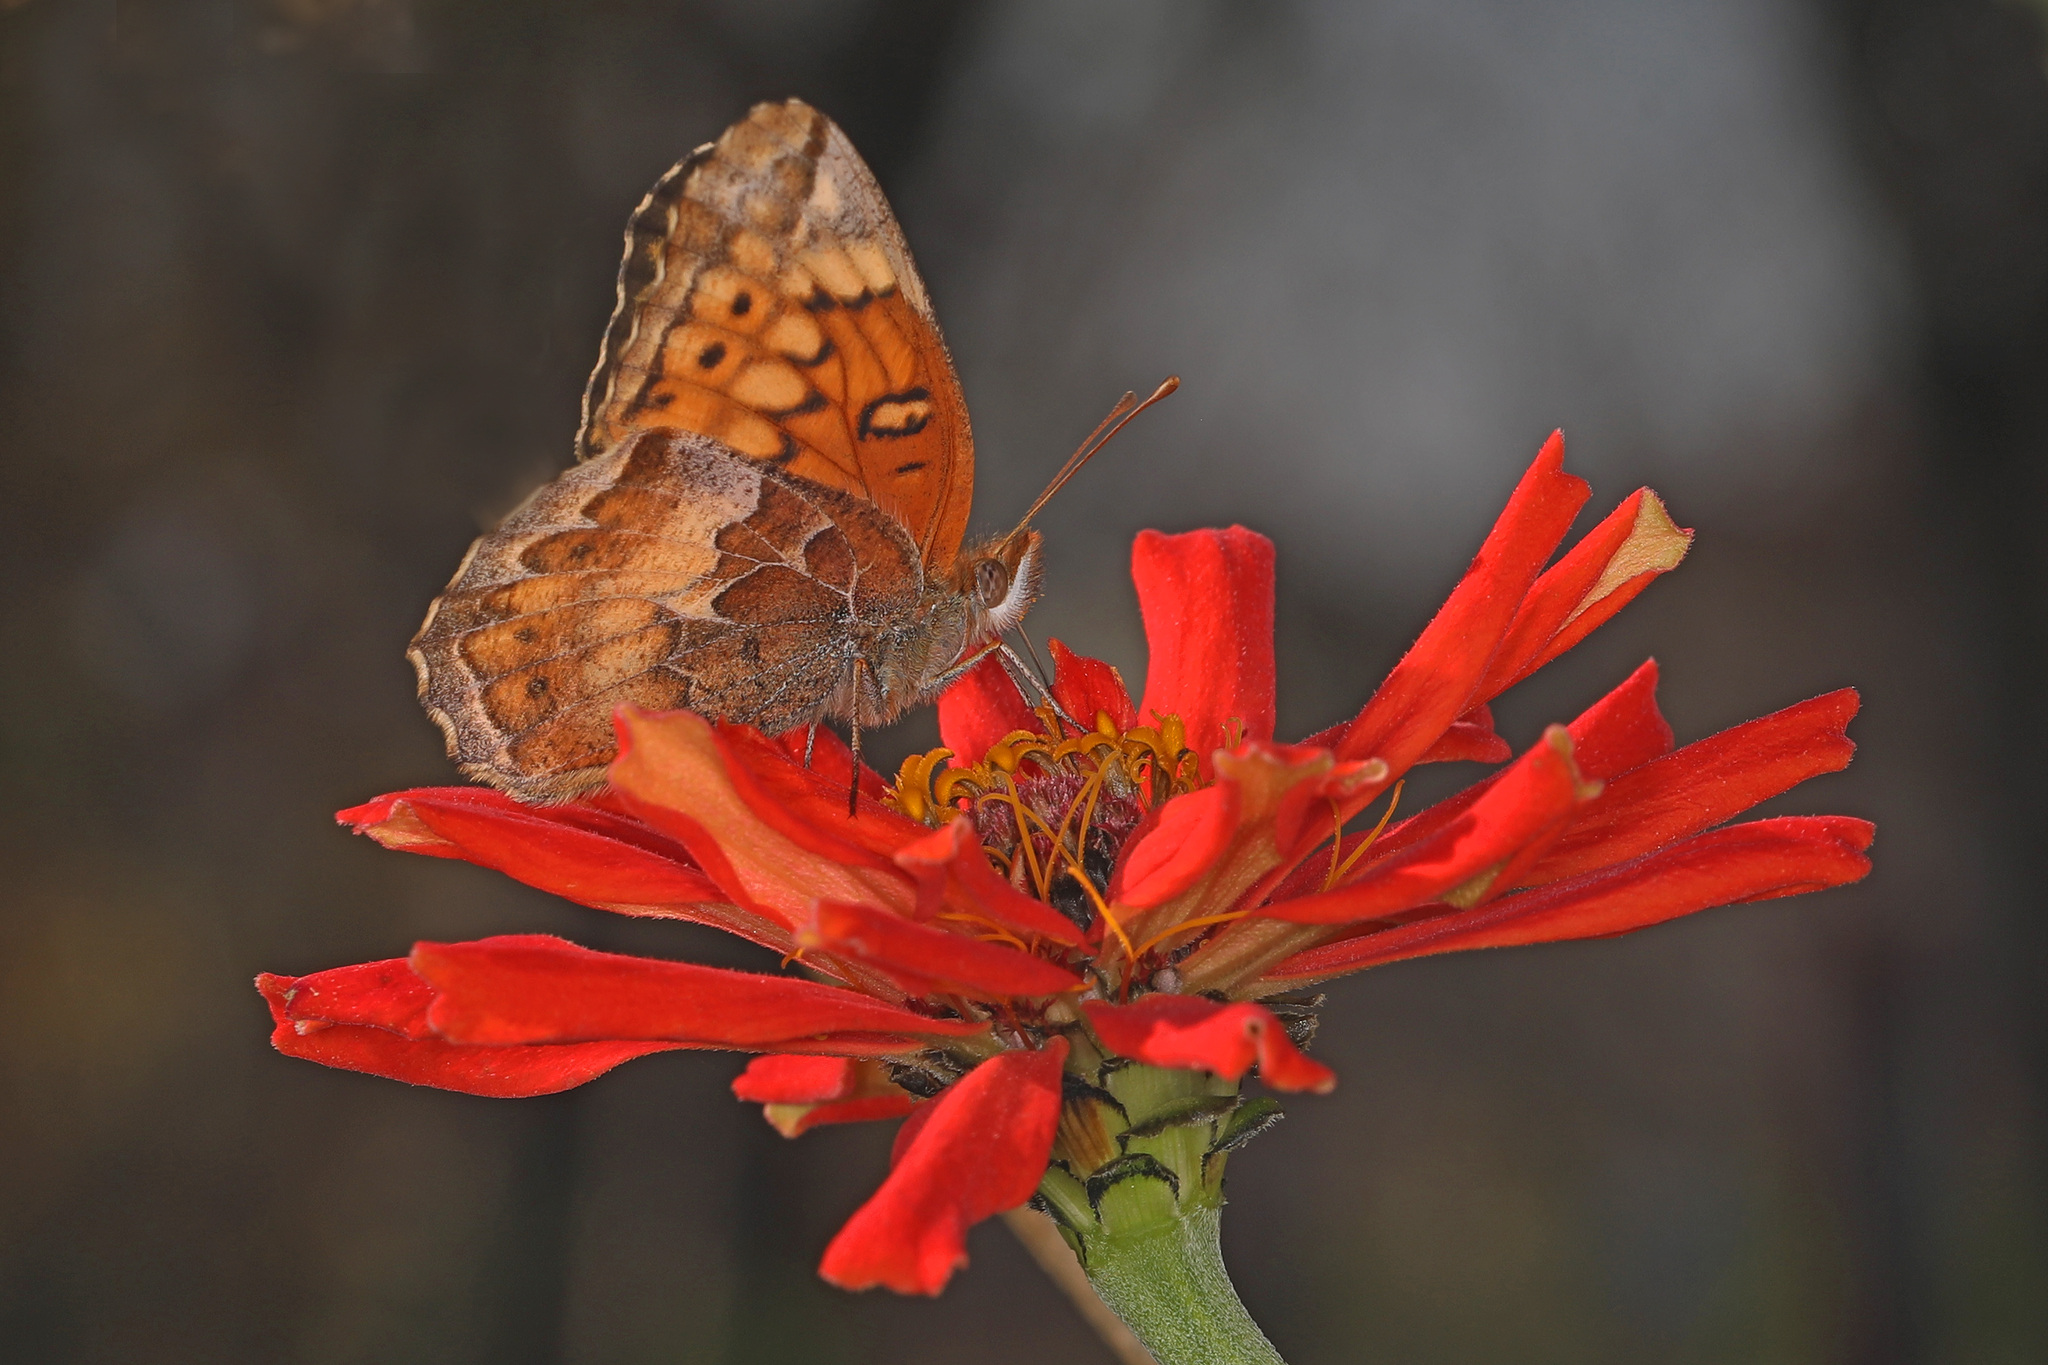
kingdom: Animalia
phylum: Arthropoda
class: Insecta
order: Lepidoptera
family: Nymphalidae
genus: Euptoieta
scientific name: Euptoieta claudia
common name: Variegated fritillary
